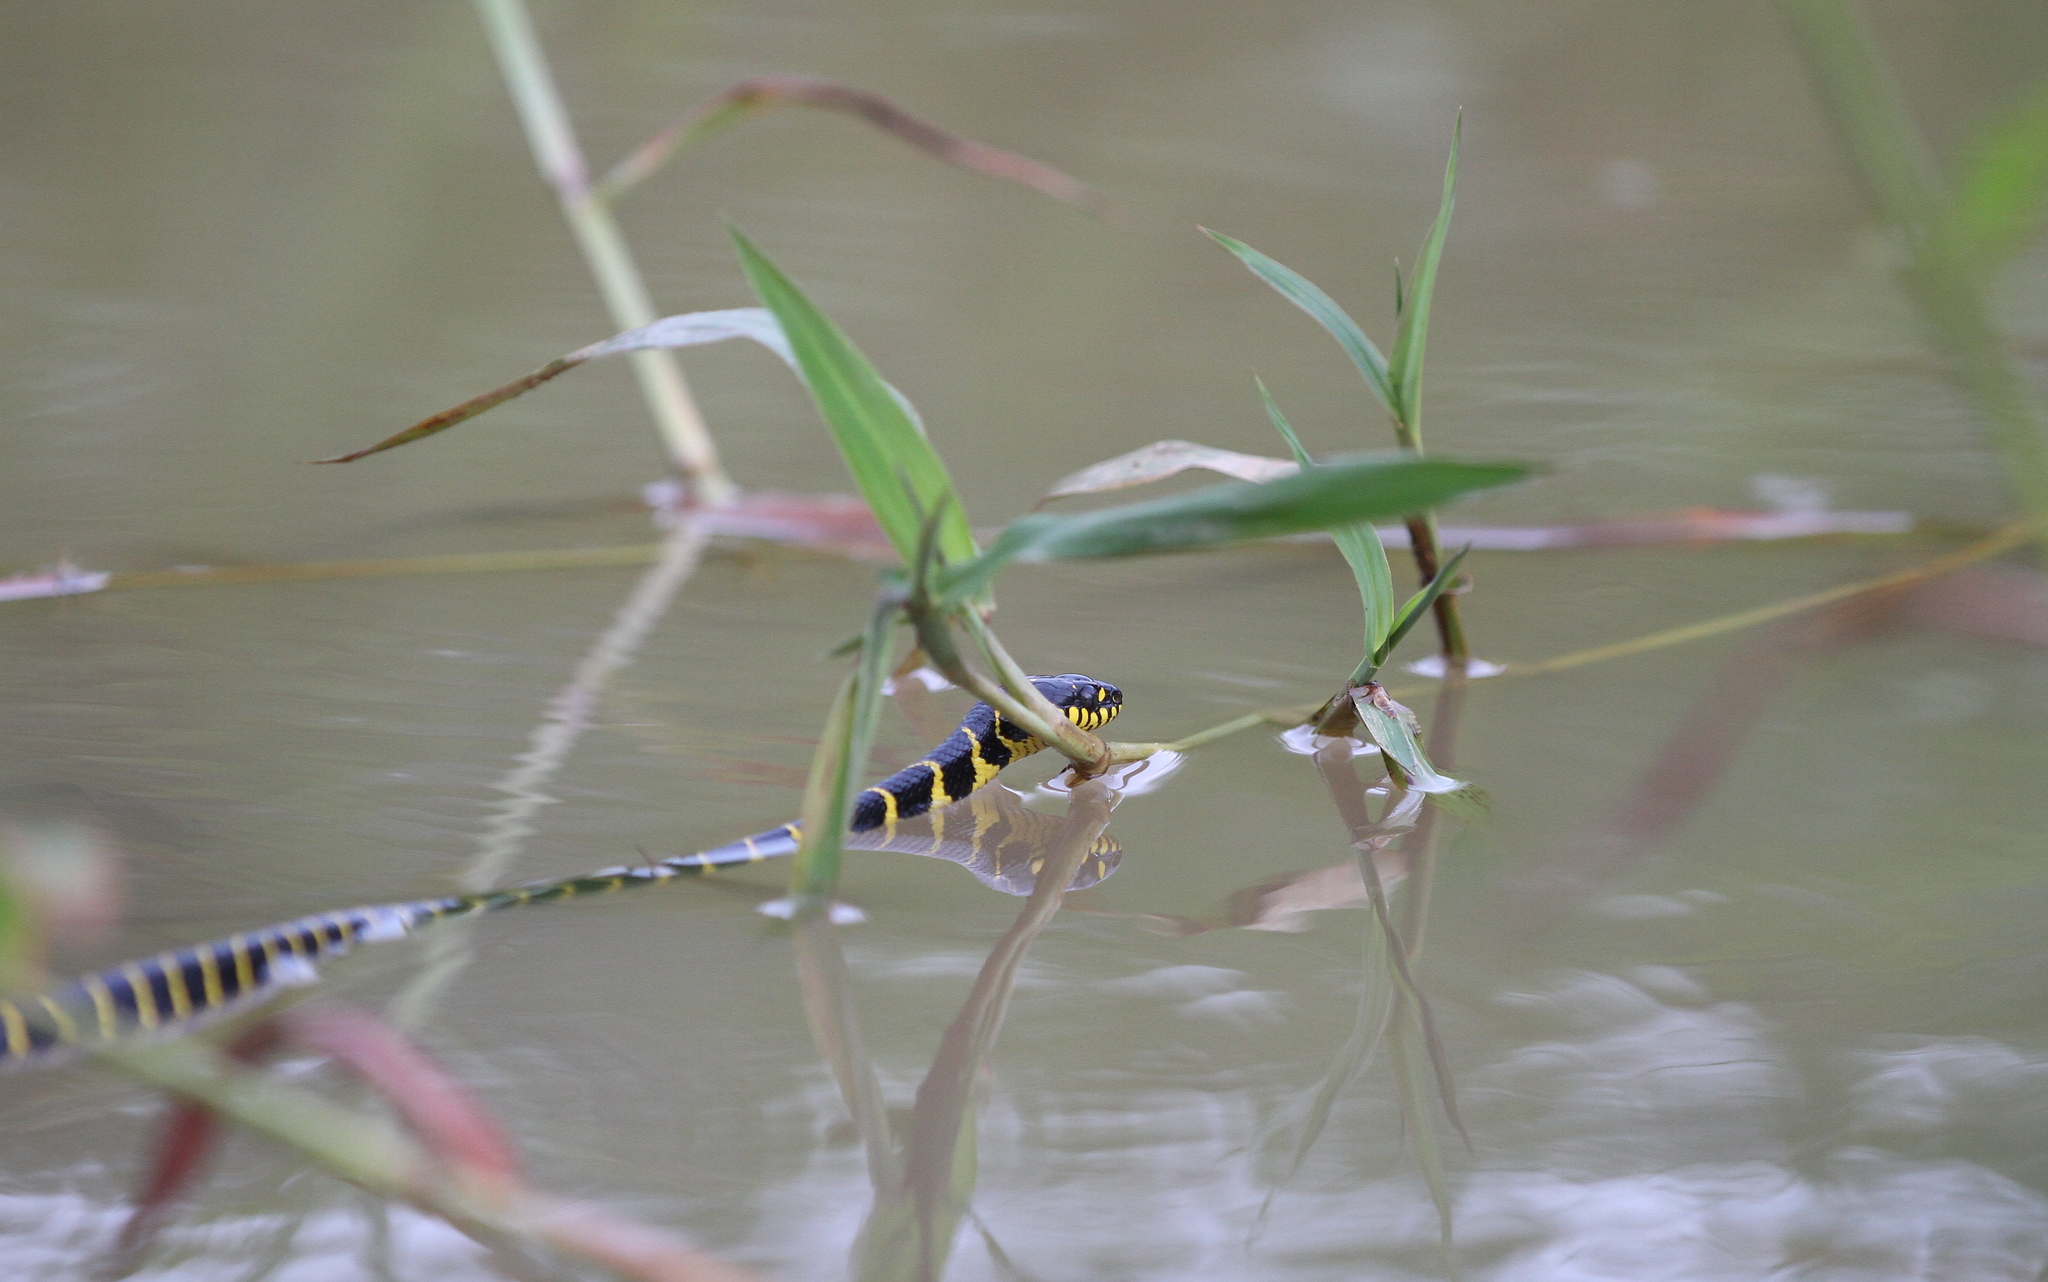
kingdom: Animalia
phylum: Chordata
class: Squamata
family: Colubridae
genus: Boiga
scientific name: Boiga dendrophila
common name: Gold-ringed cat snake
